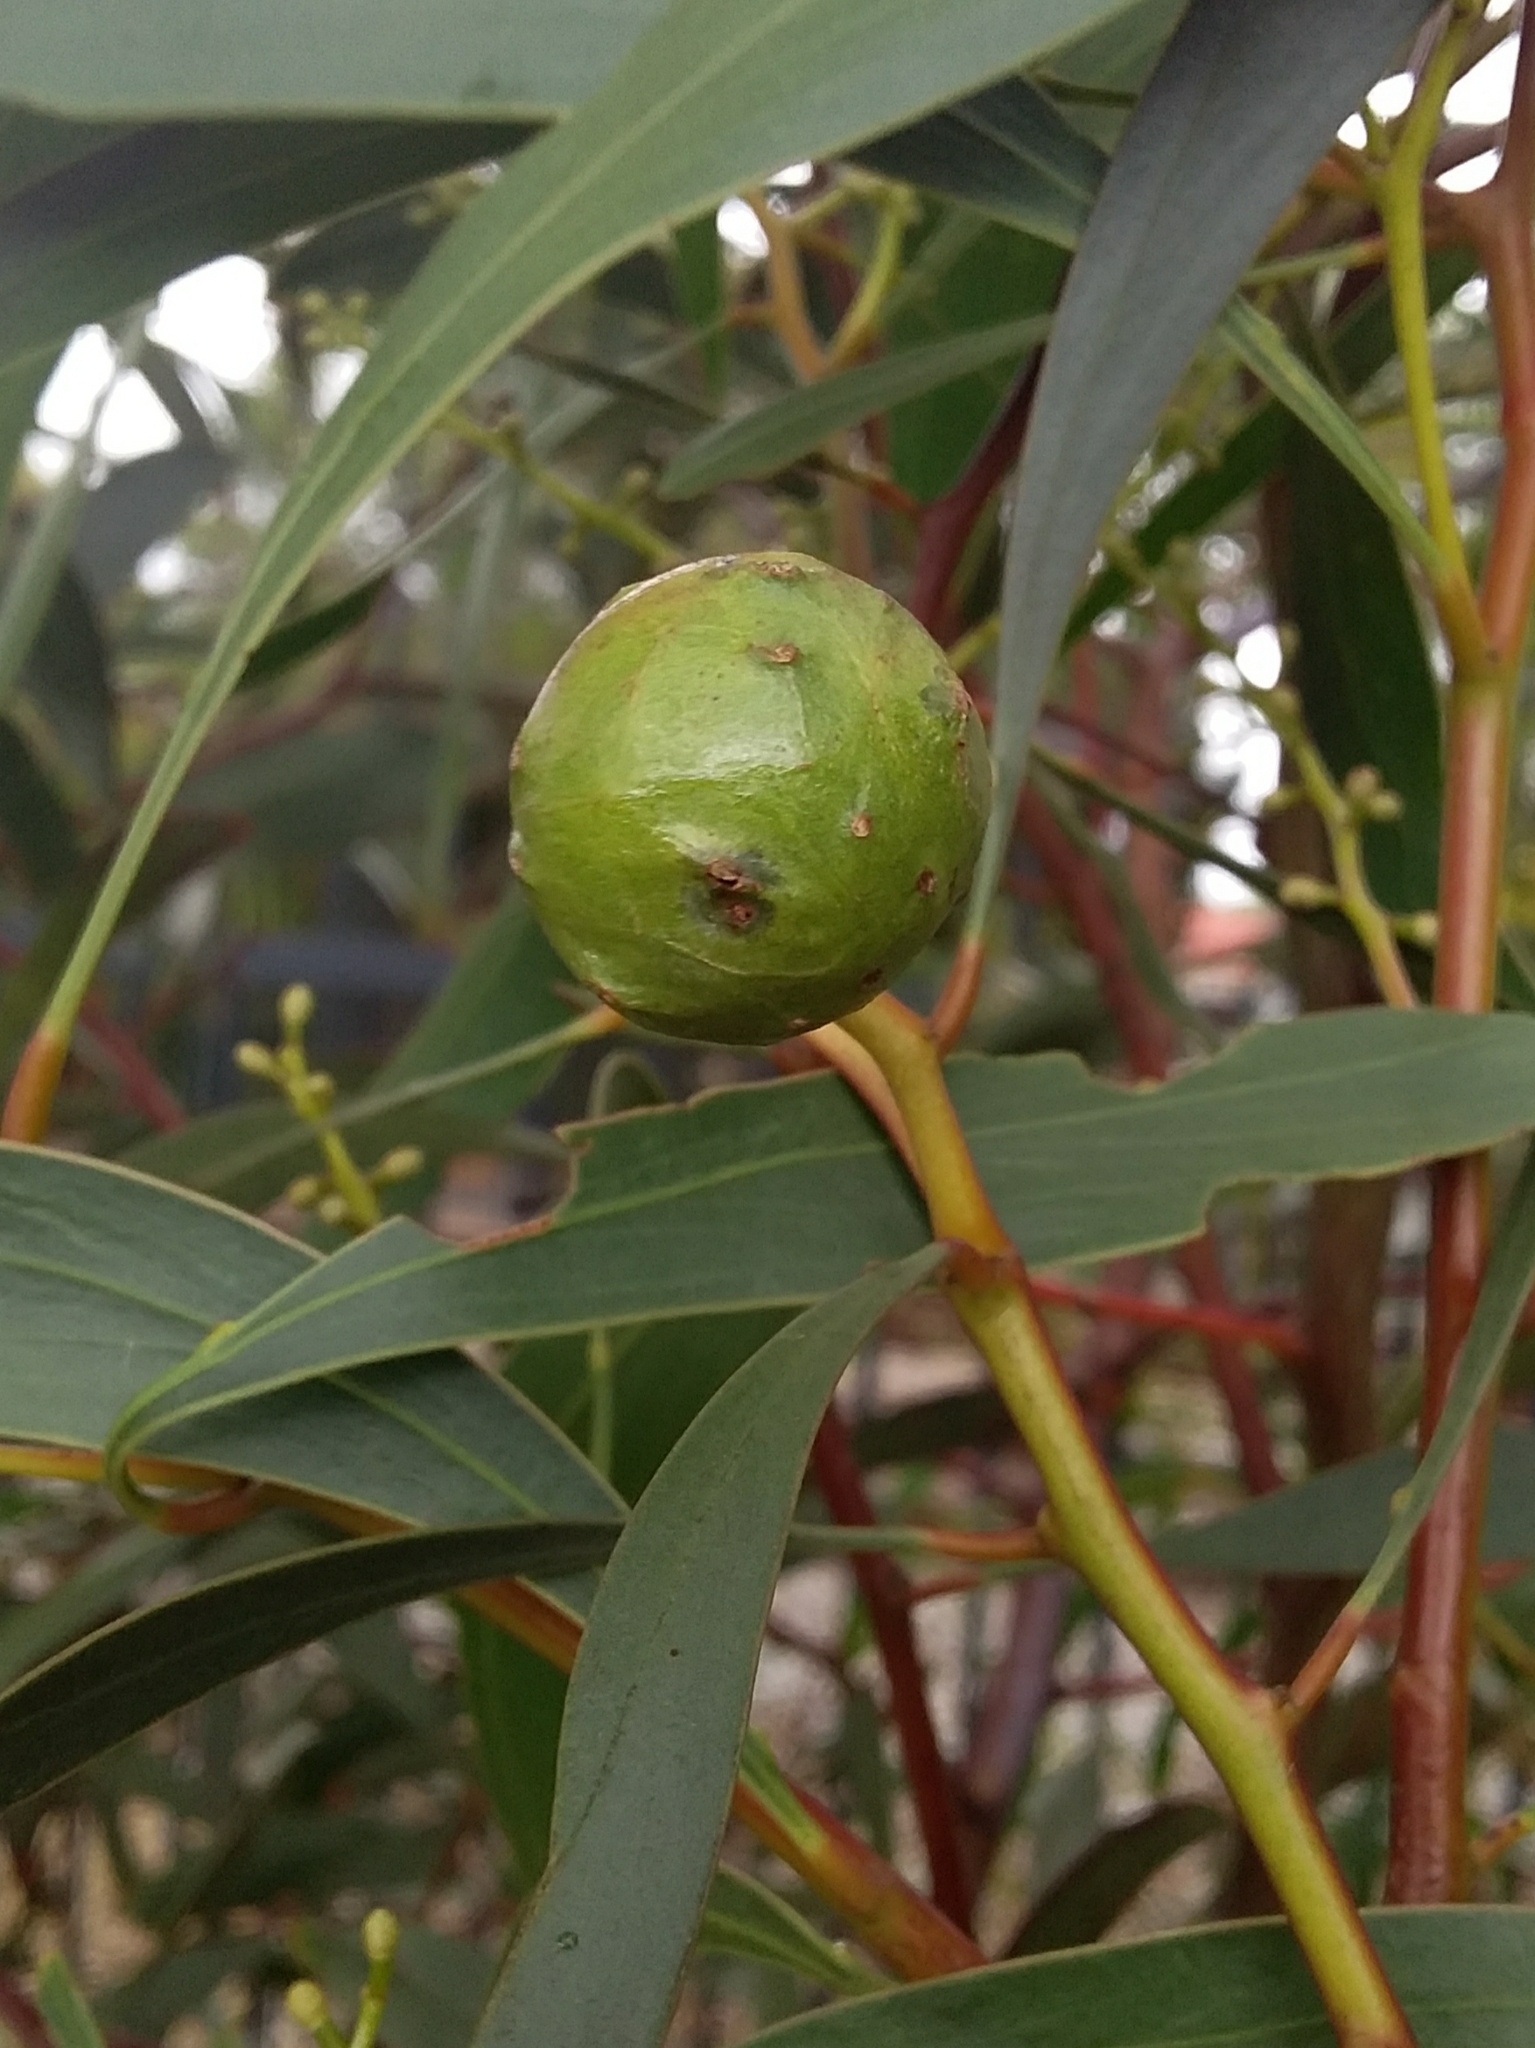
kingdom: Animalia
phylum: Arthropoda
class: Insecta
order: Hymenoptera
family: Pteromalidae
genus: Trichilogaster
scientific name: Trichilogaster signiventris
